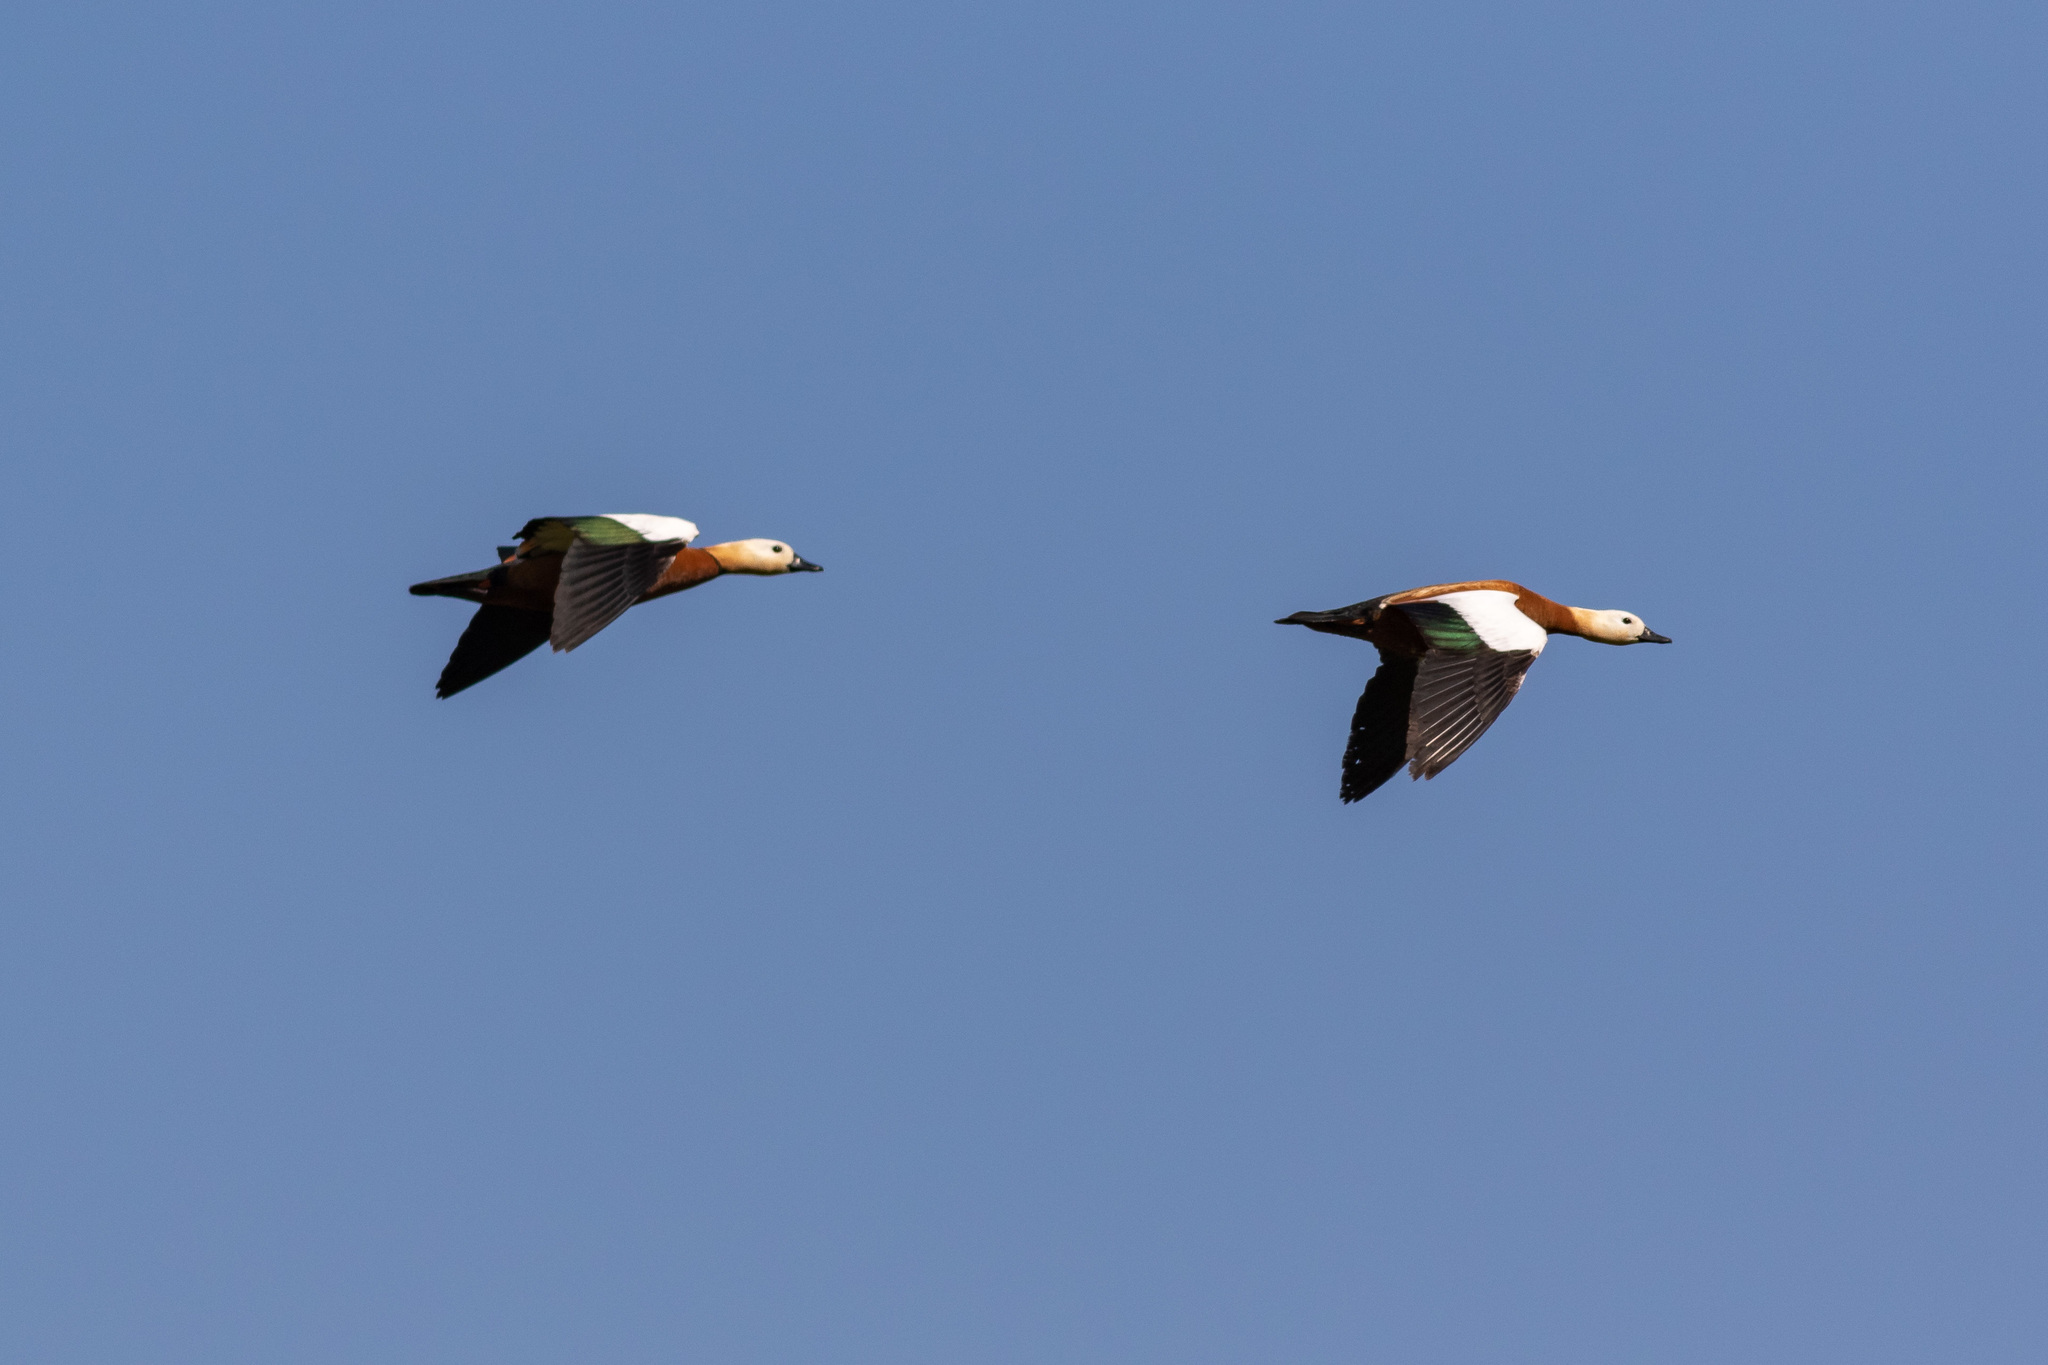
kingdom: Animalia
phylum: Chordata
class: Aves
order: Anseriformes
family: Anatidae
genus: Tadorna
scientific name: Tadorna ferruginea
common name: Ruddy shelduck
